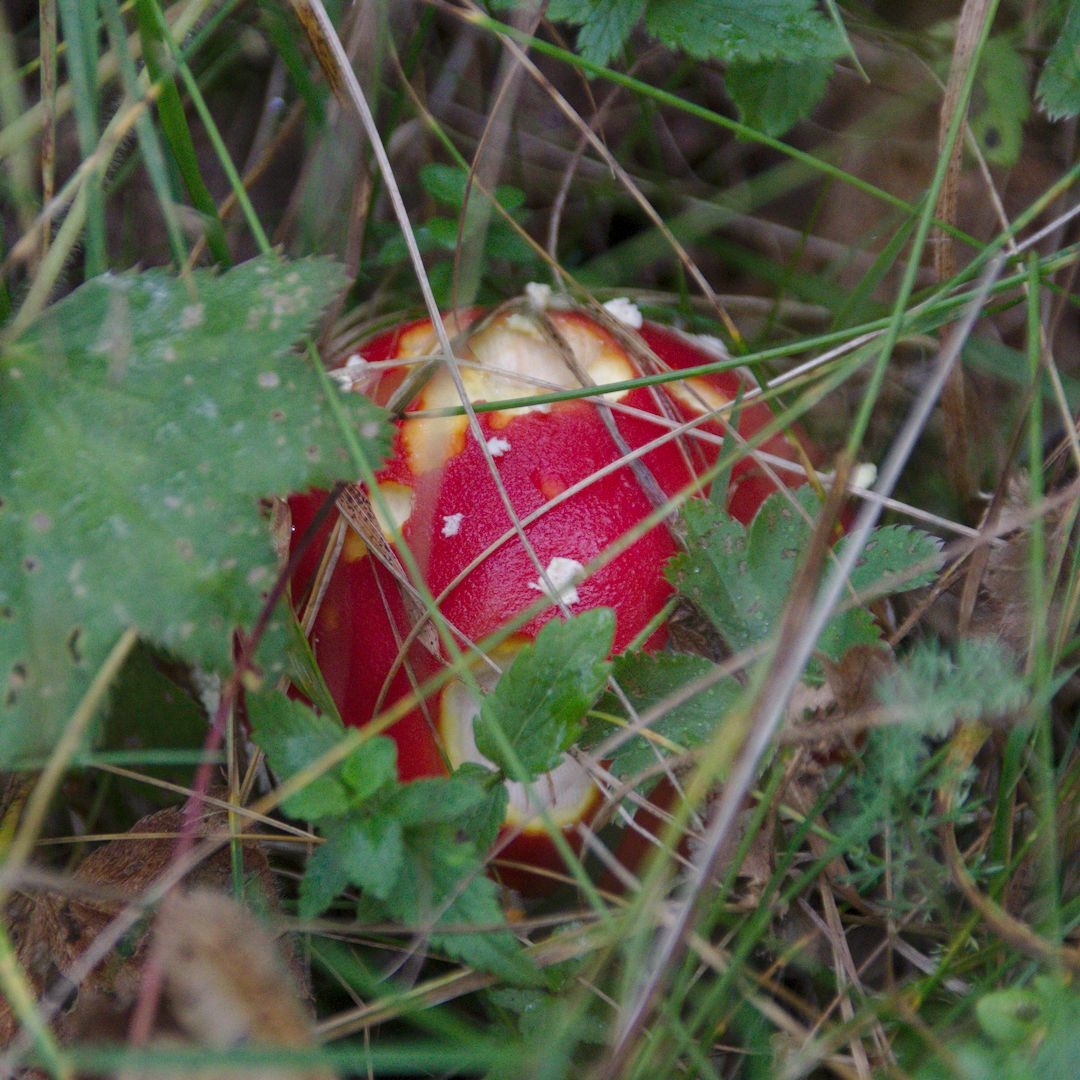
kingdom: Fungi
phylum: Basidiomycota
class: Agaricomycetes
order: Agaricales
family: Amanitaceae
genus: Amanita
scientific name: Amanita muscaria
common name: Fly agaric
